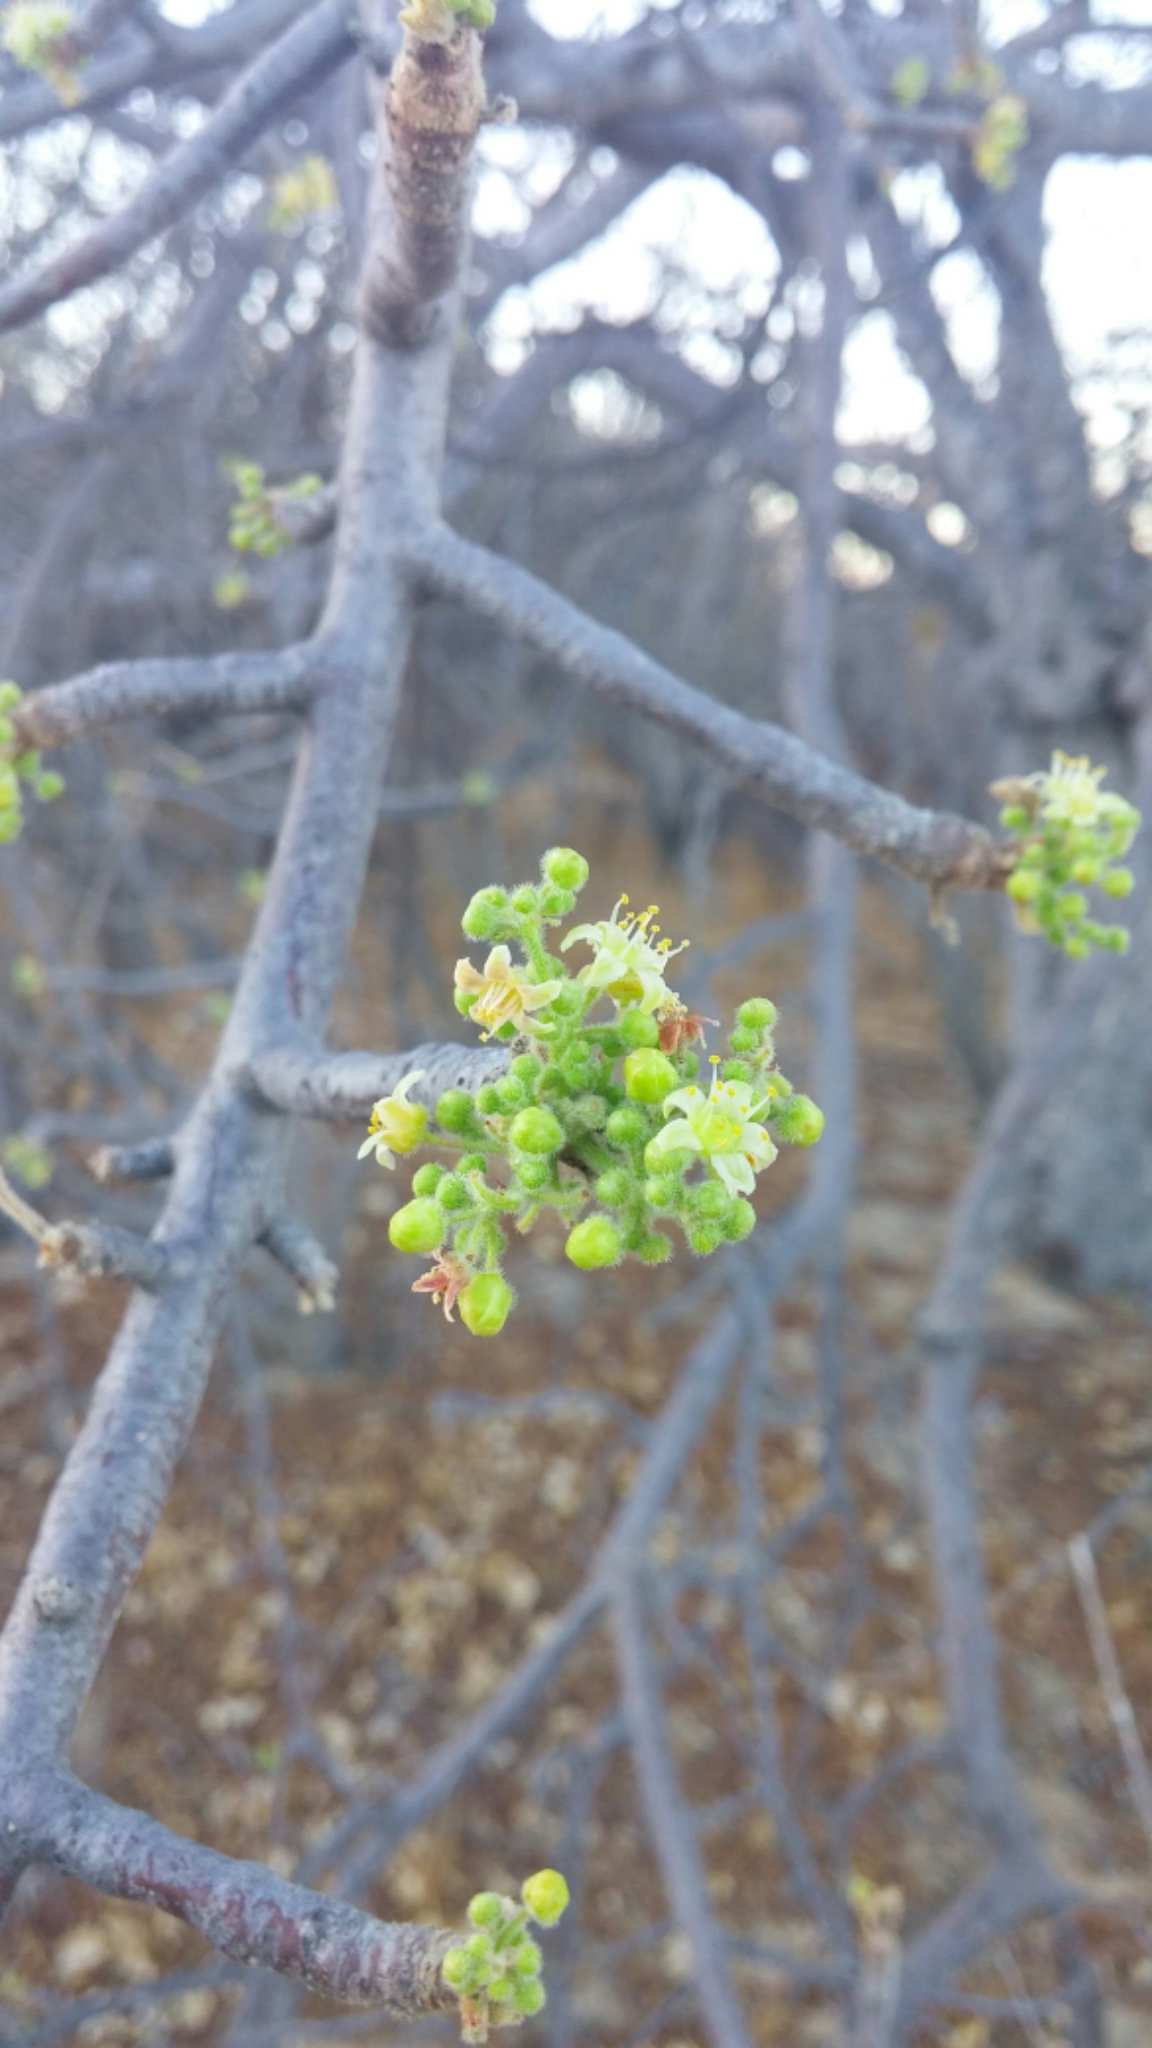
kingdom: Plantae
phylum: Tracheophyta
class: Magnoliopsida
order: Sapindales
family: Anacardiaceae
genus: Cyrtocarpa
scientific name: Cyrtocarpa edulis
